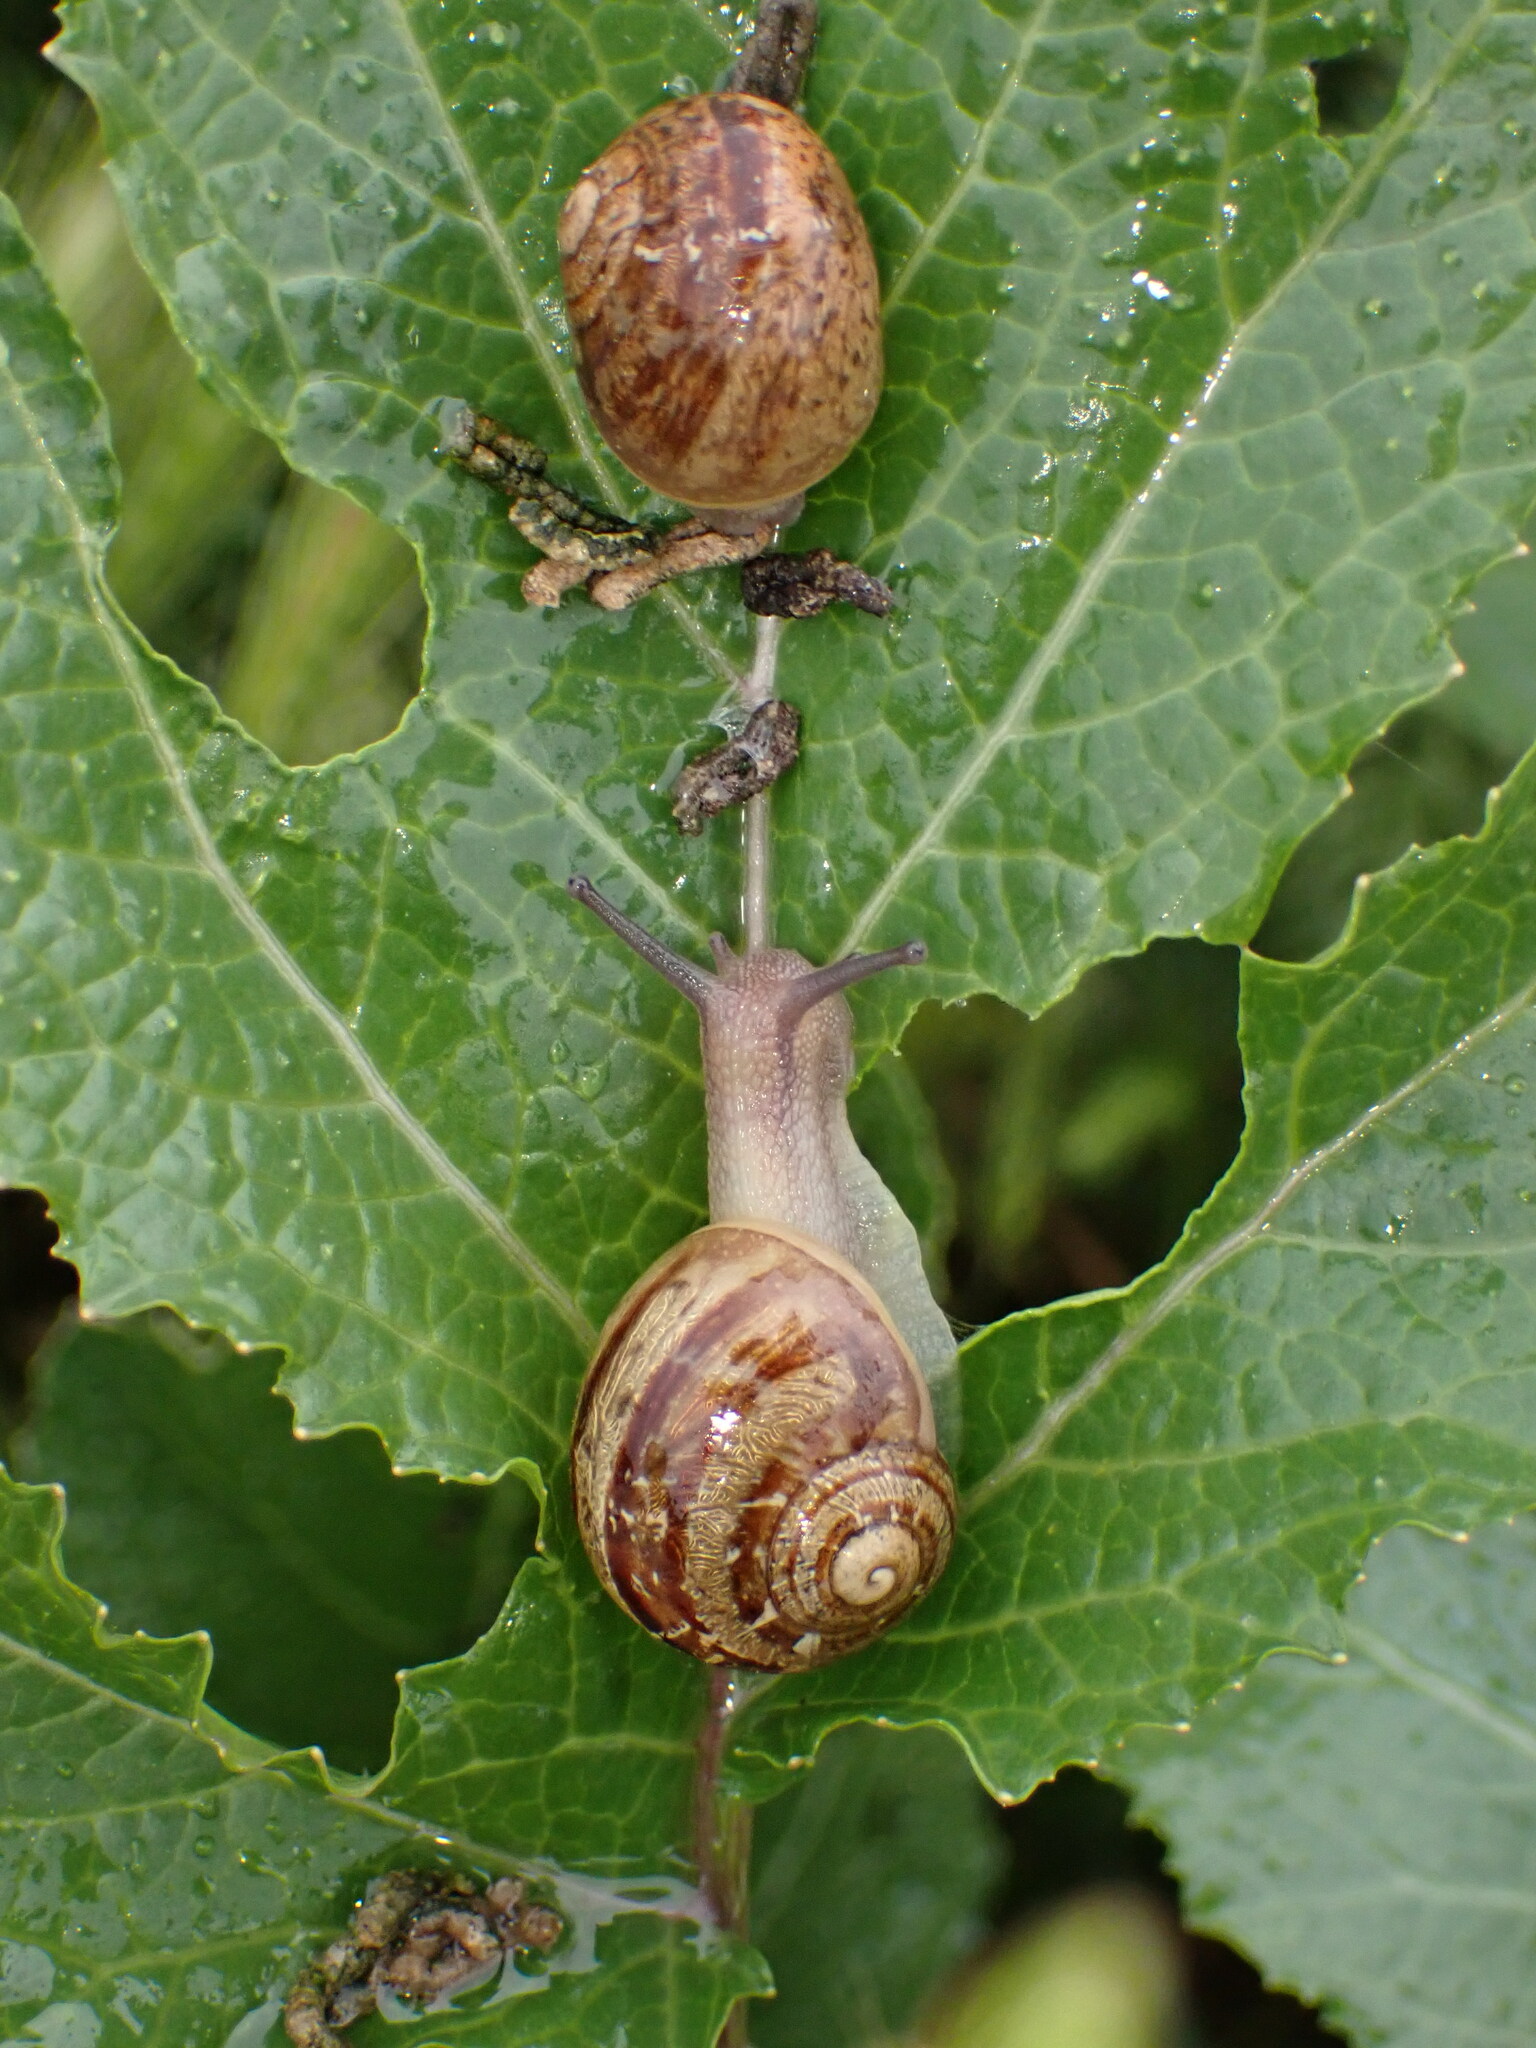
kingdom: Animalia
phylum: Mollusca
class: Gastropoda
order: Stylommatophora
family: Helicidae
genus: Cornu
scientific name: Cornu aspersum
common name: Brown garden snail
